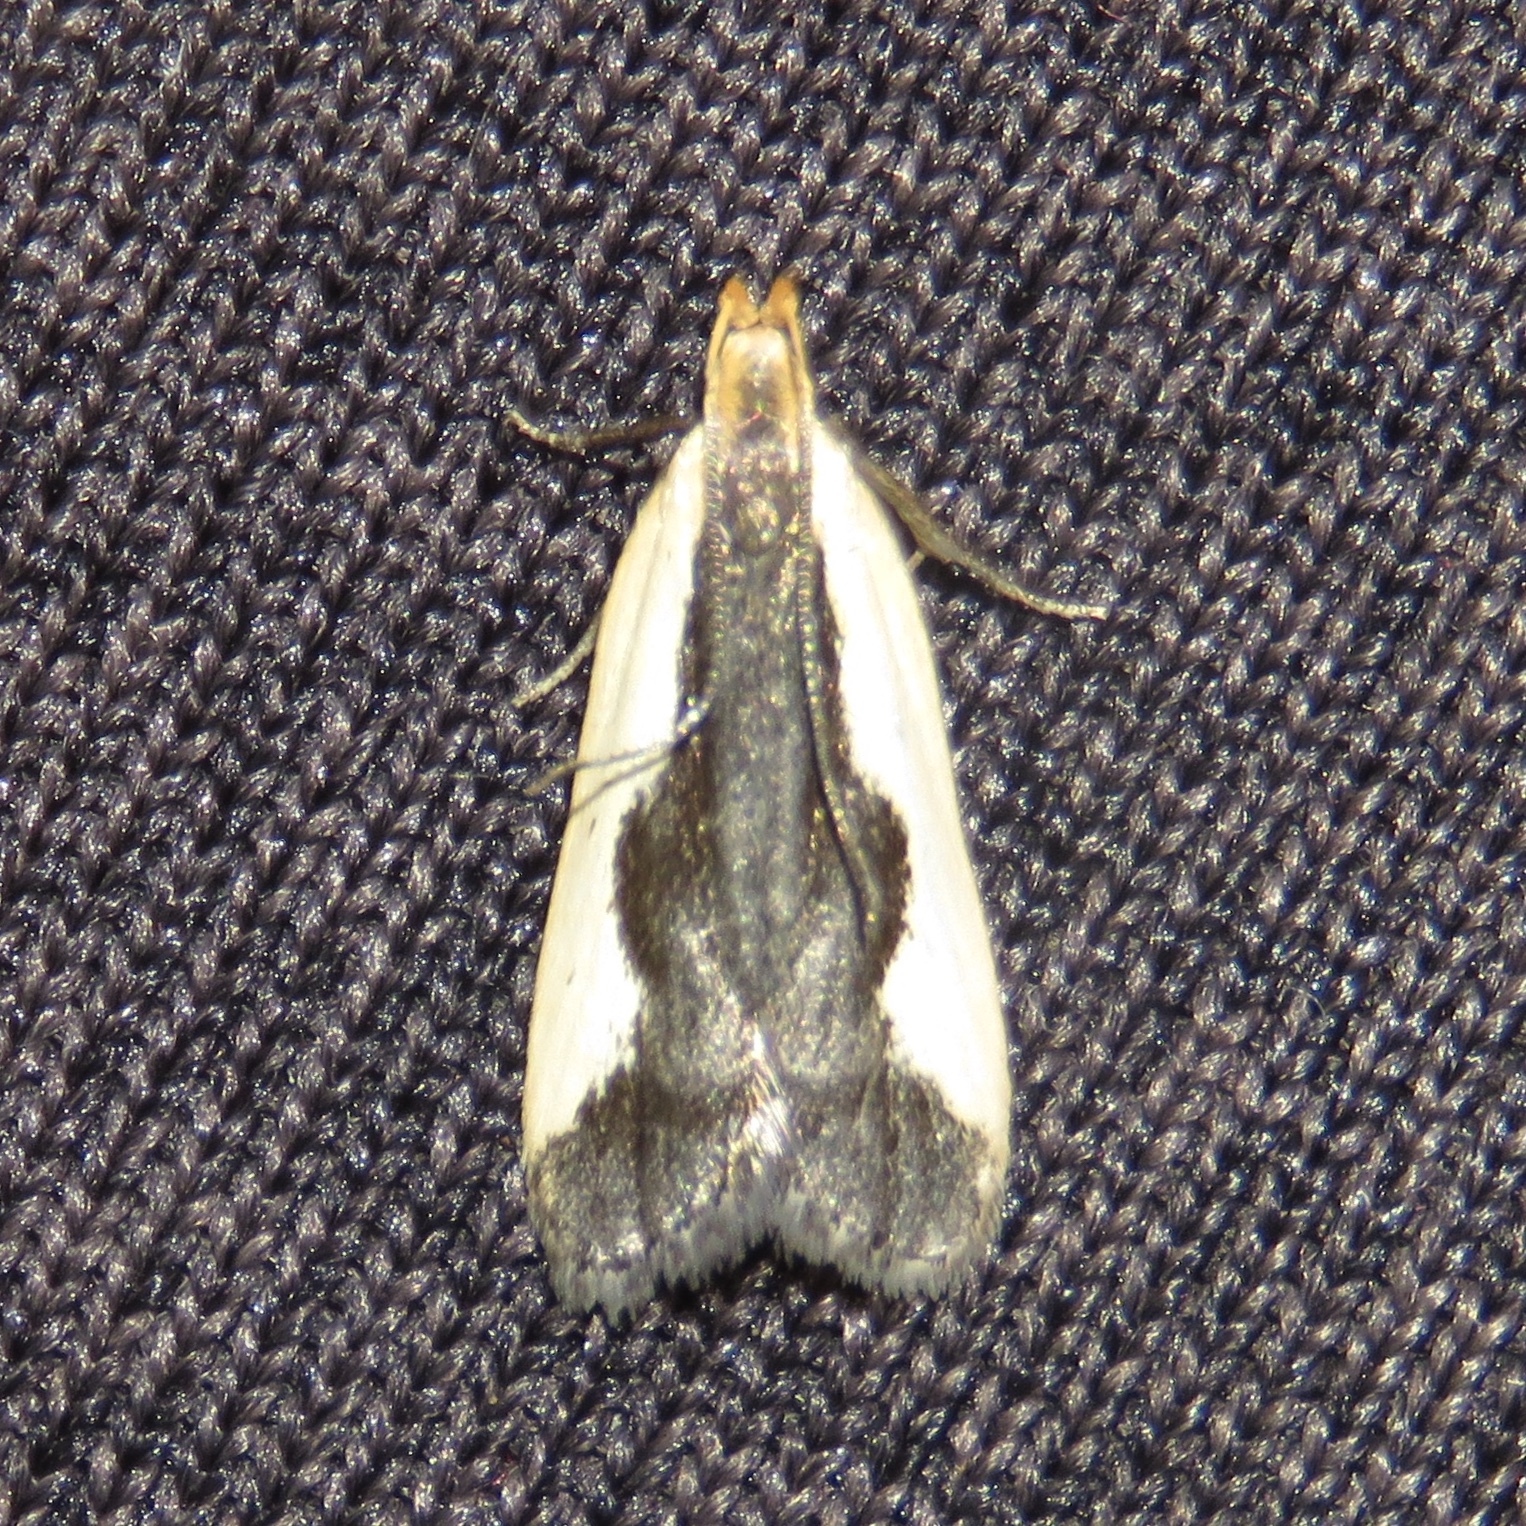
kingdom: Animalia
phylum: Arthropoda
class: Insecta
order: Lepidoptera
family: Gelechiidae
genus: Dichomeris
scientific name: Dichomeris inserrata
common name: Indented dichomeris moth
